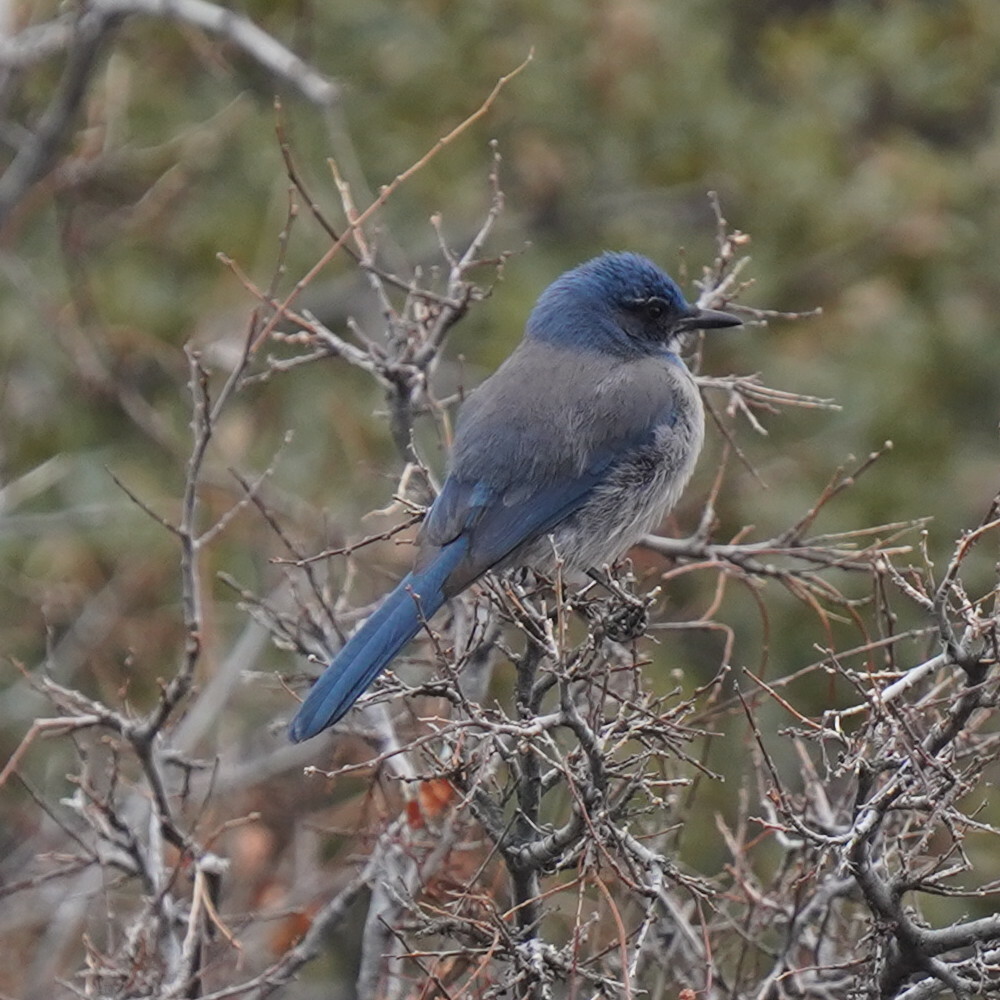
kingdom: Animalia
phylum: Chordata
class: Aves
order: Passeriformes
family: Corvidae
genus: Aphelocoma
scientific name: Aphelocoma woodhouseii
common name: Woodhouse's scrub-jay
